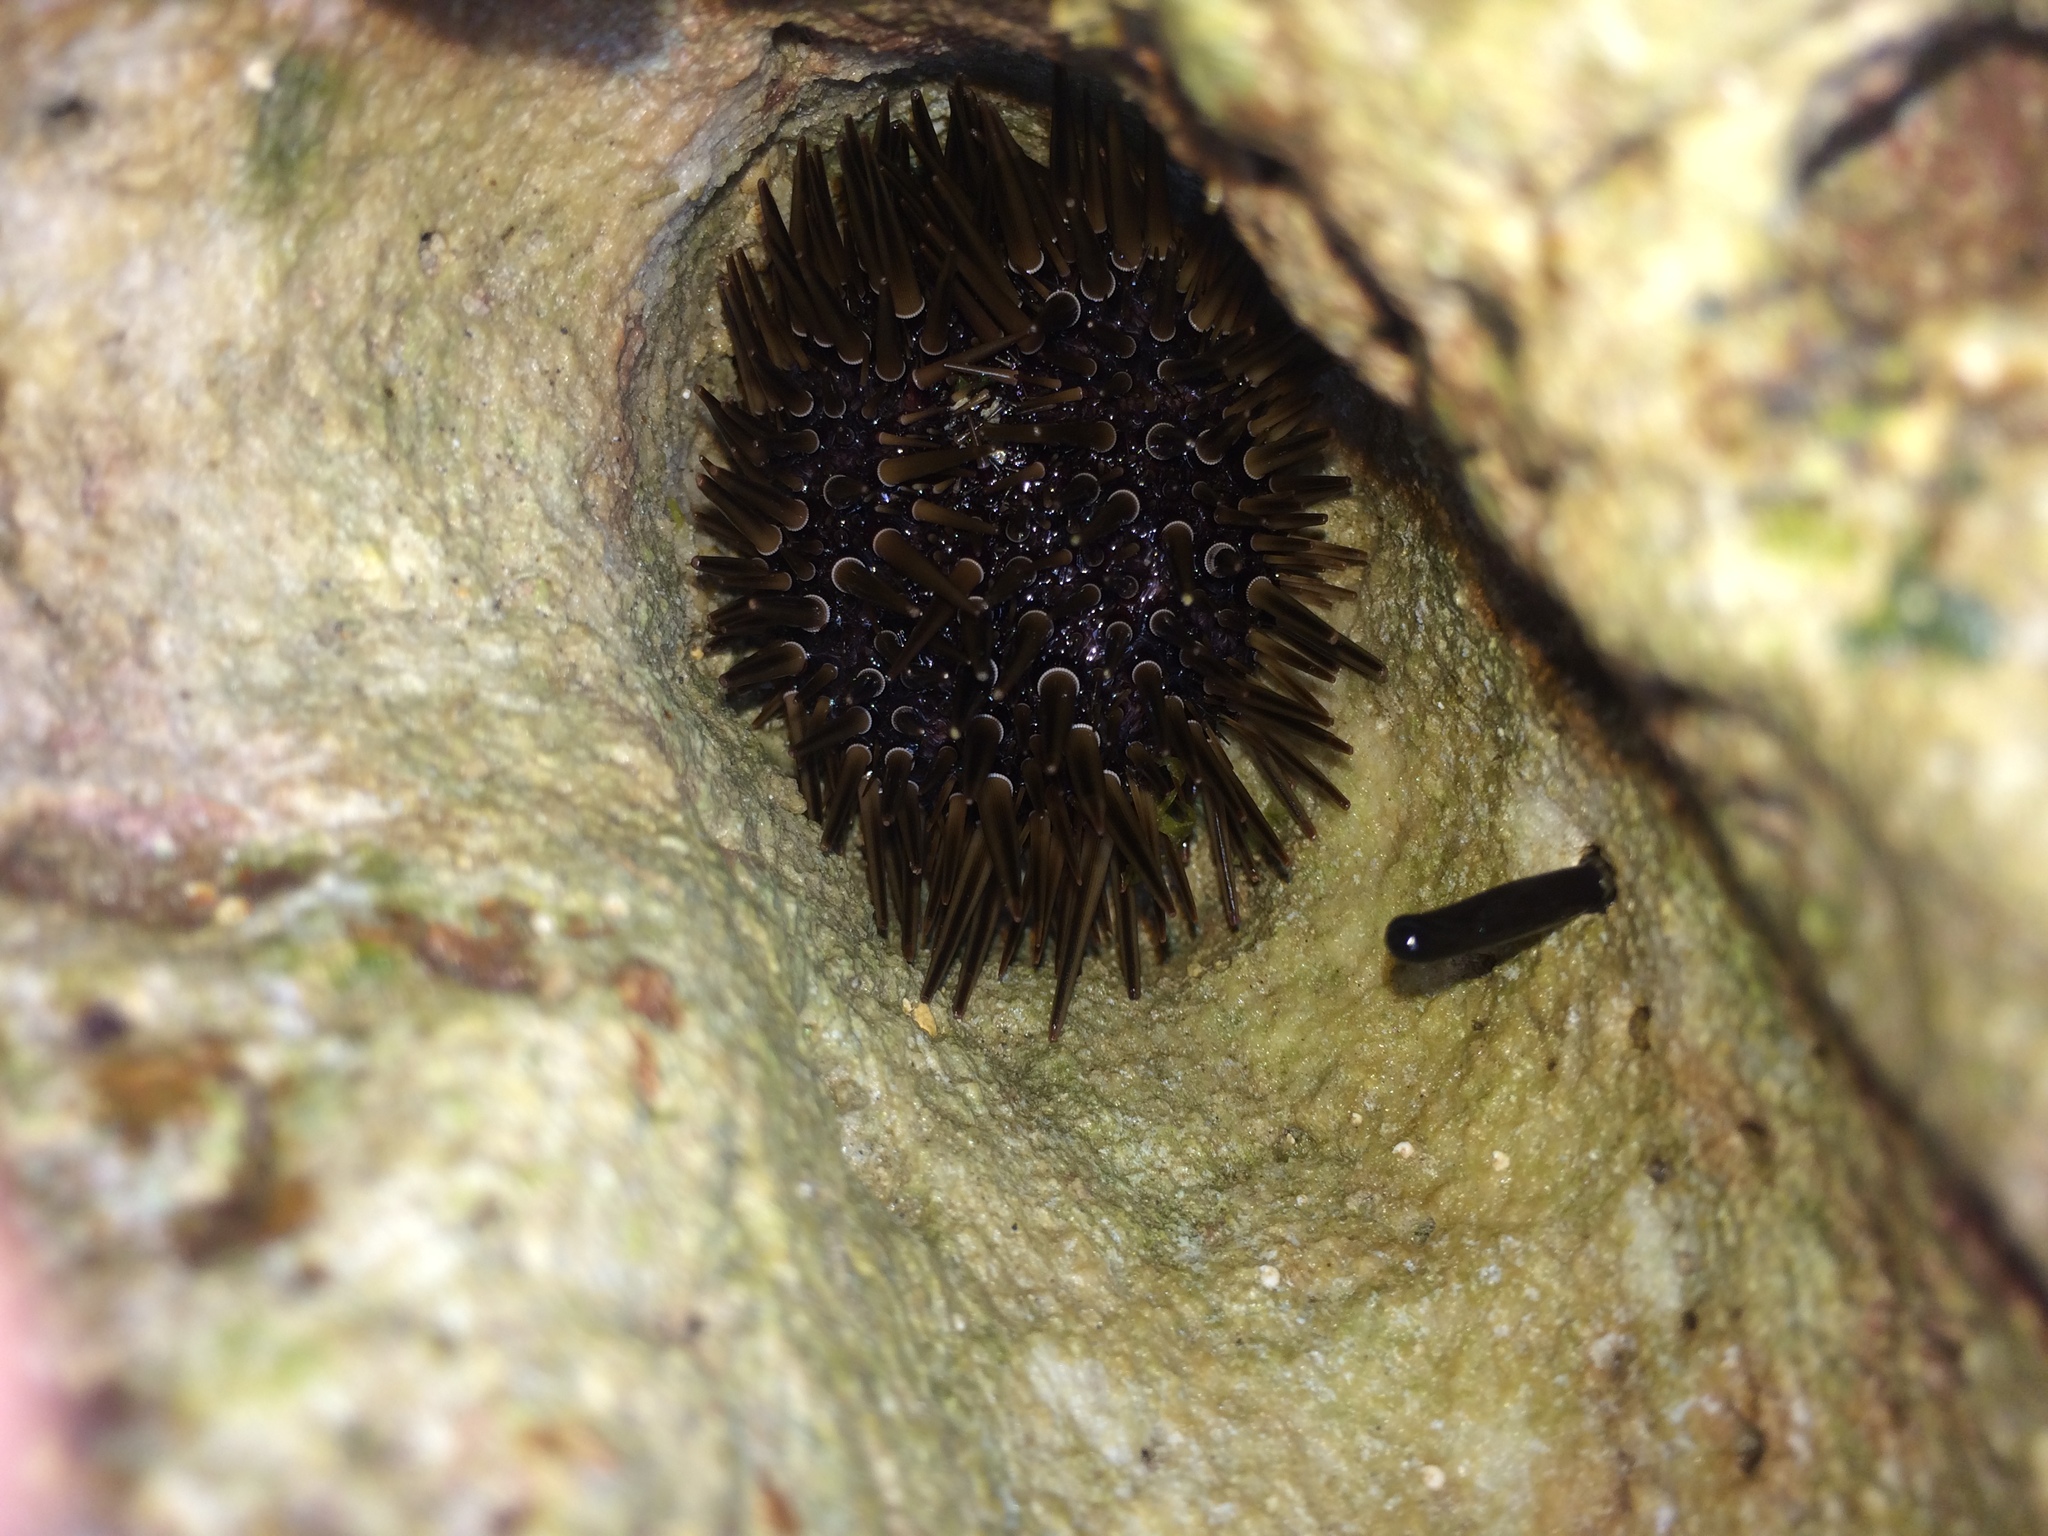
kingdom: Animalia
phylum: Echinodermata
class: Echinoidea
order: Camarodonta
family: Echinometridae
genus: Echinometra
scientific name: Echinometra mathaei
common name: Rock-boring urchin
